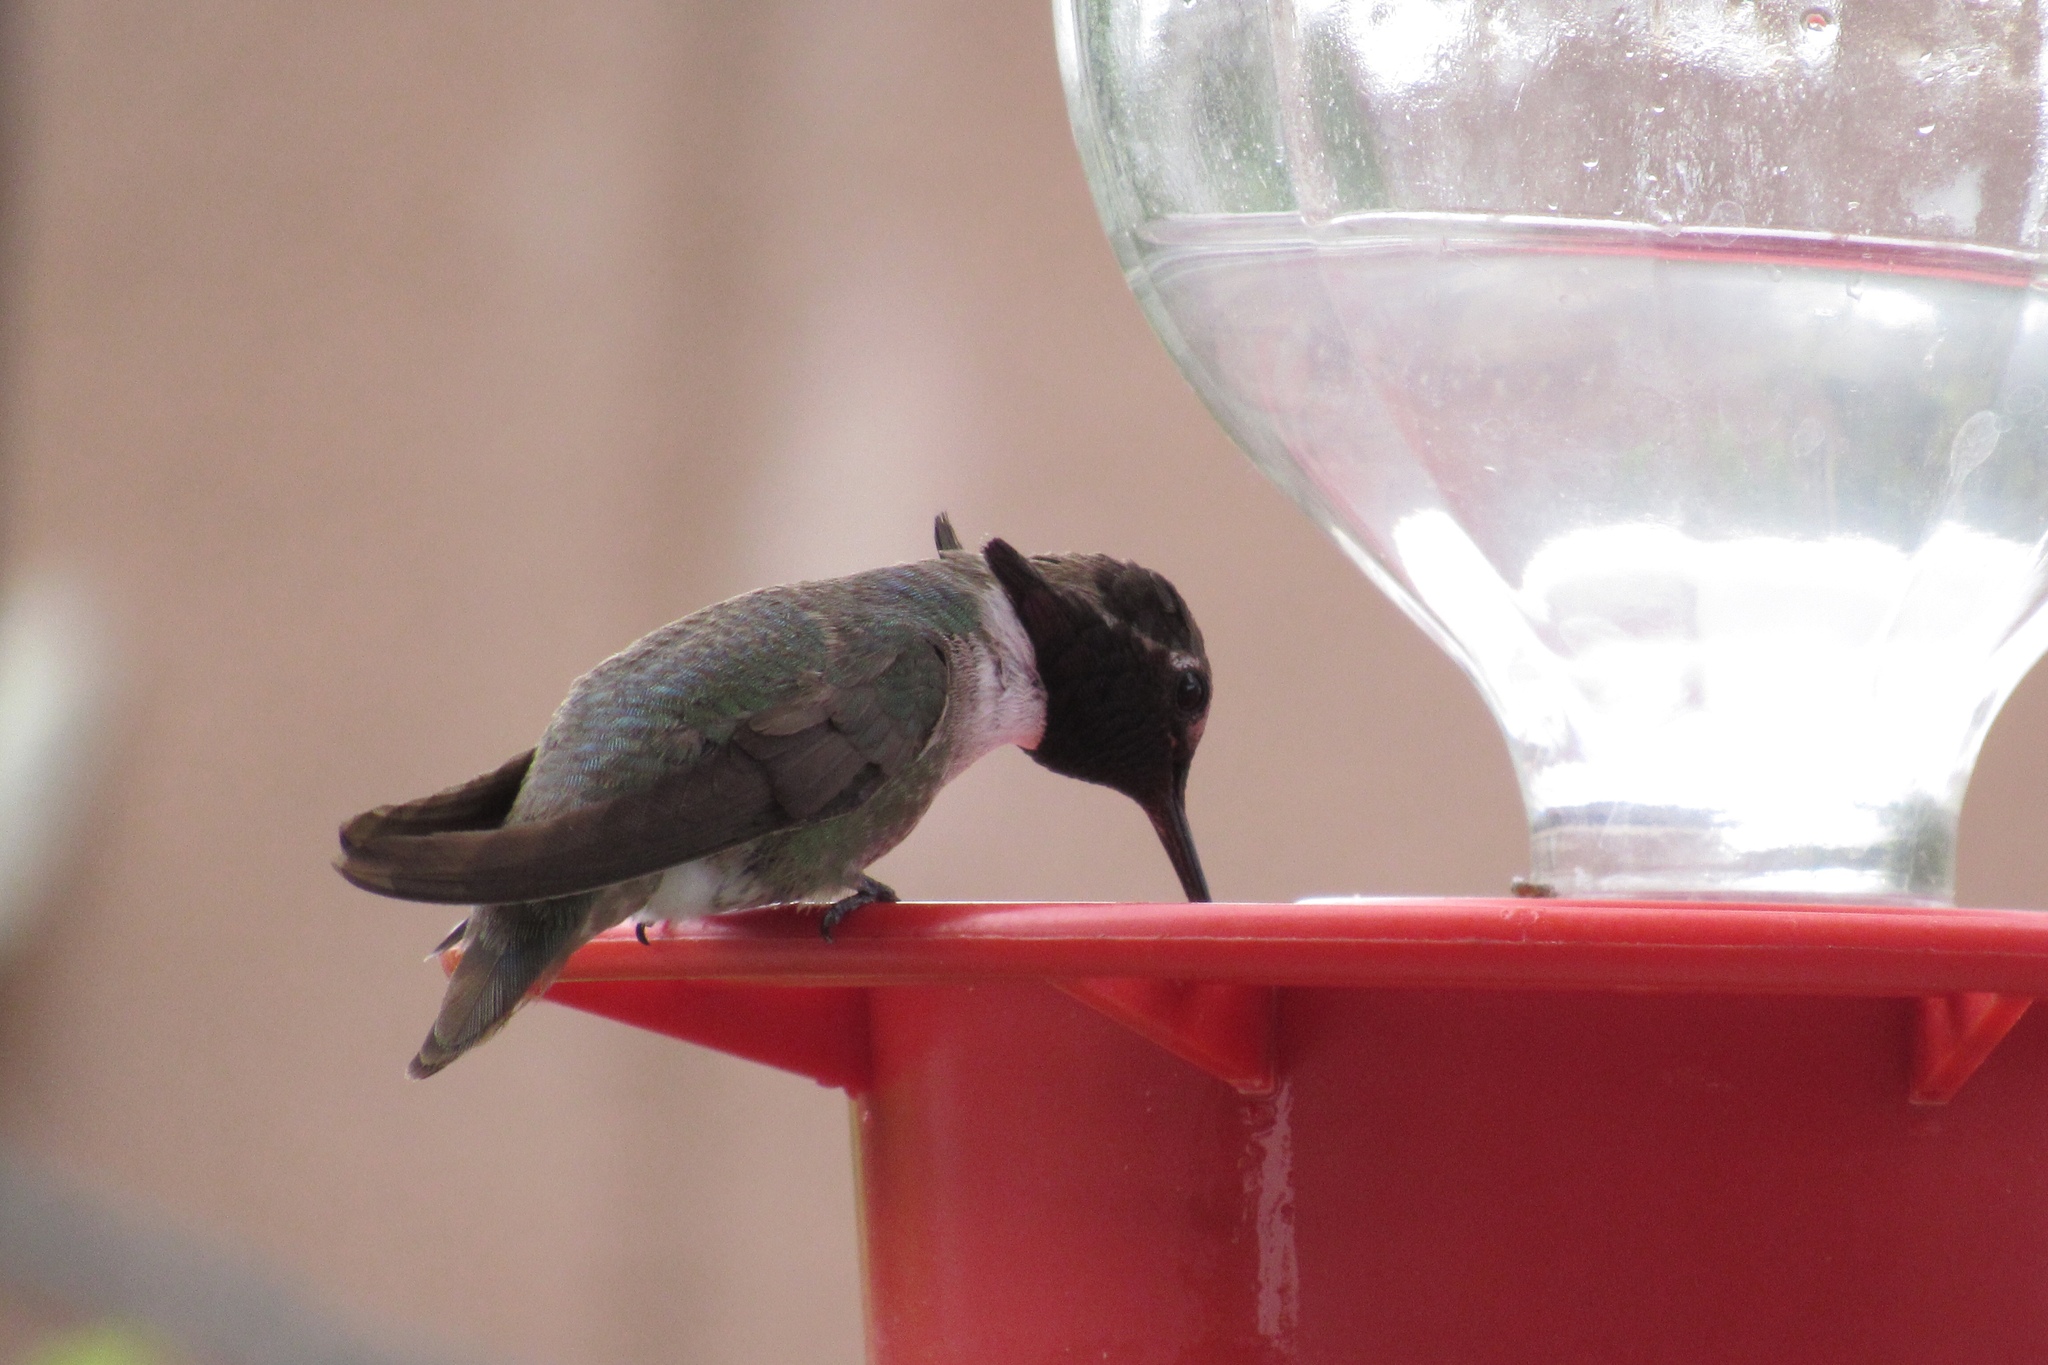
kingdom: Animalia
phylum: Chordata
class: Aves
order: Apodiformes
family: Trochilidae
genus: Calypte
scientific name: Calypte costae
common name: Costa's hummingbird
